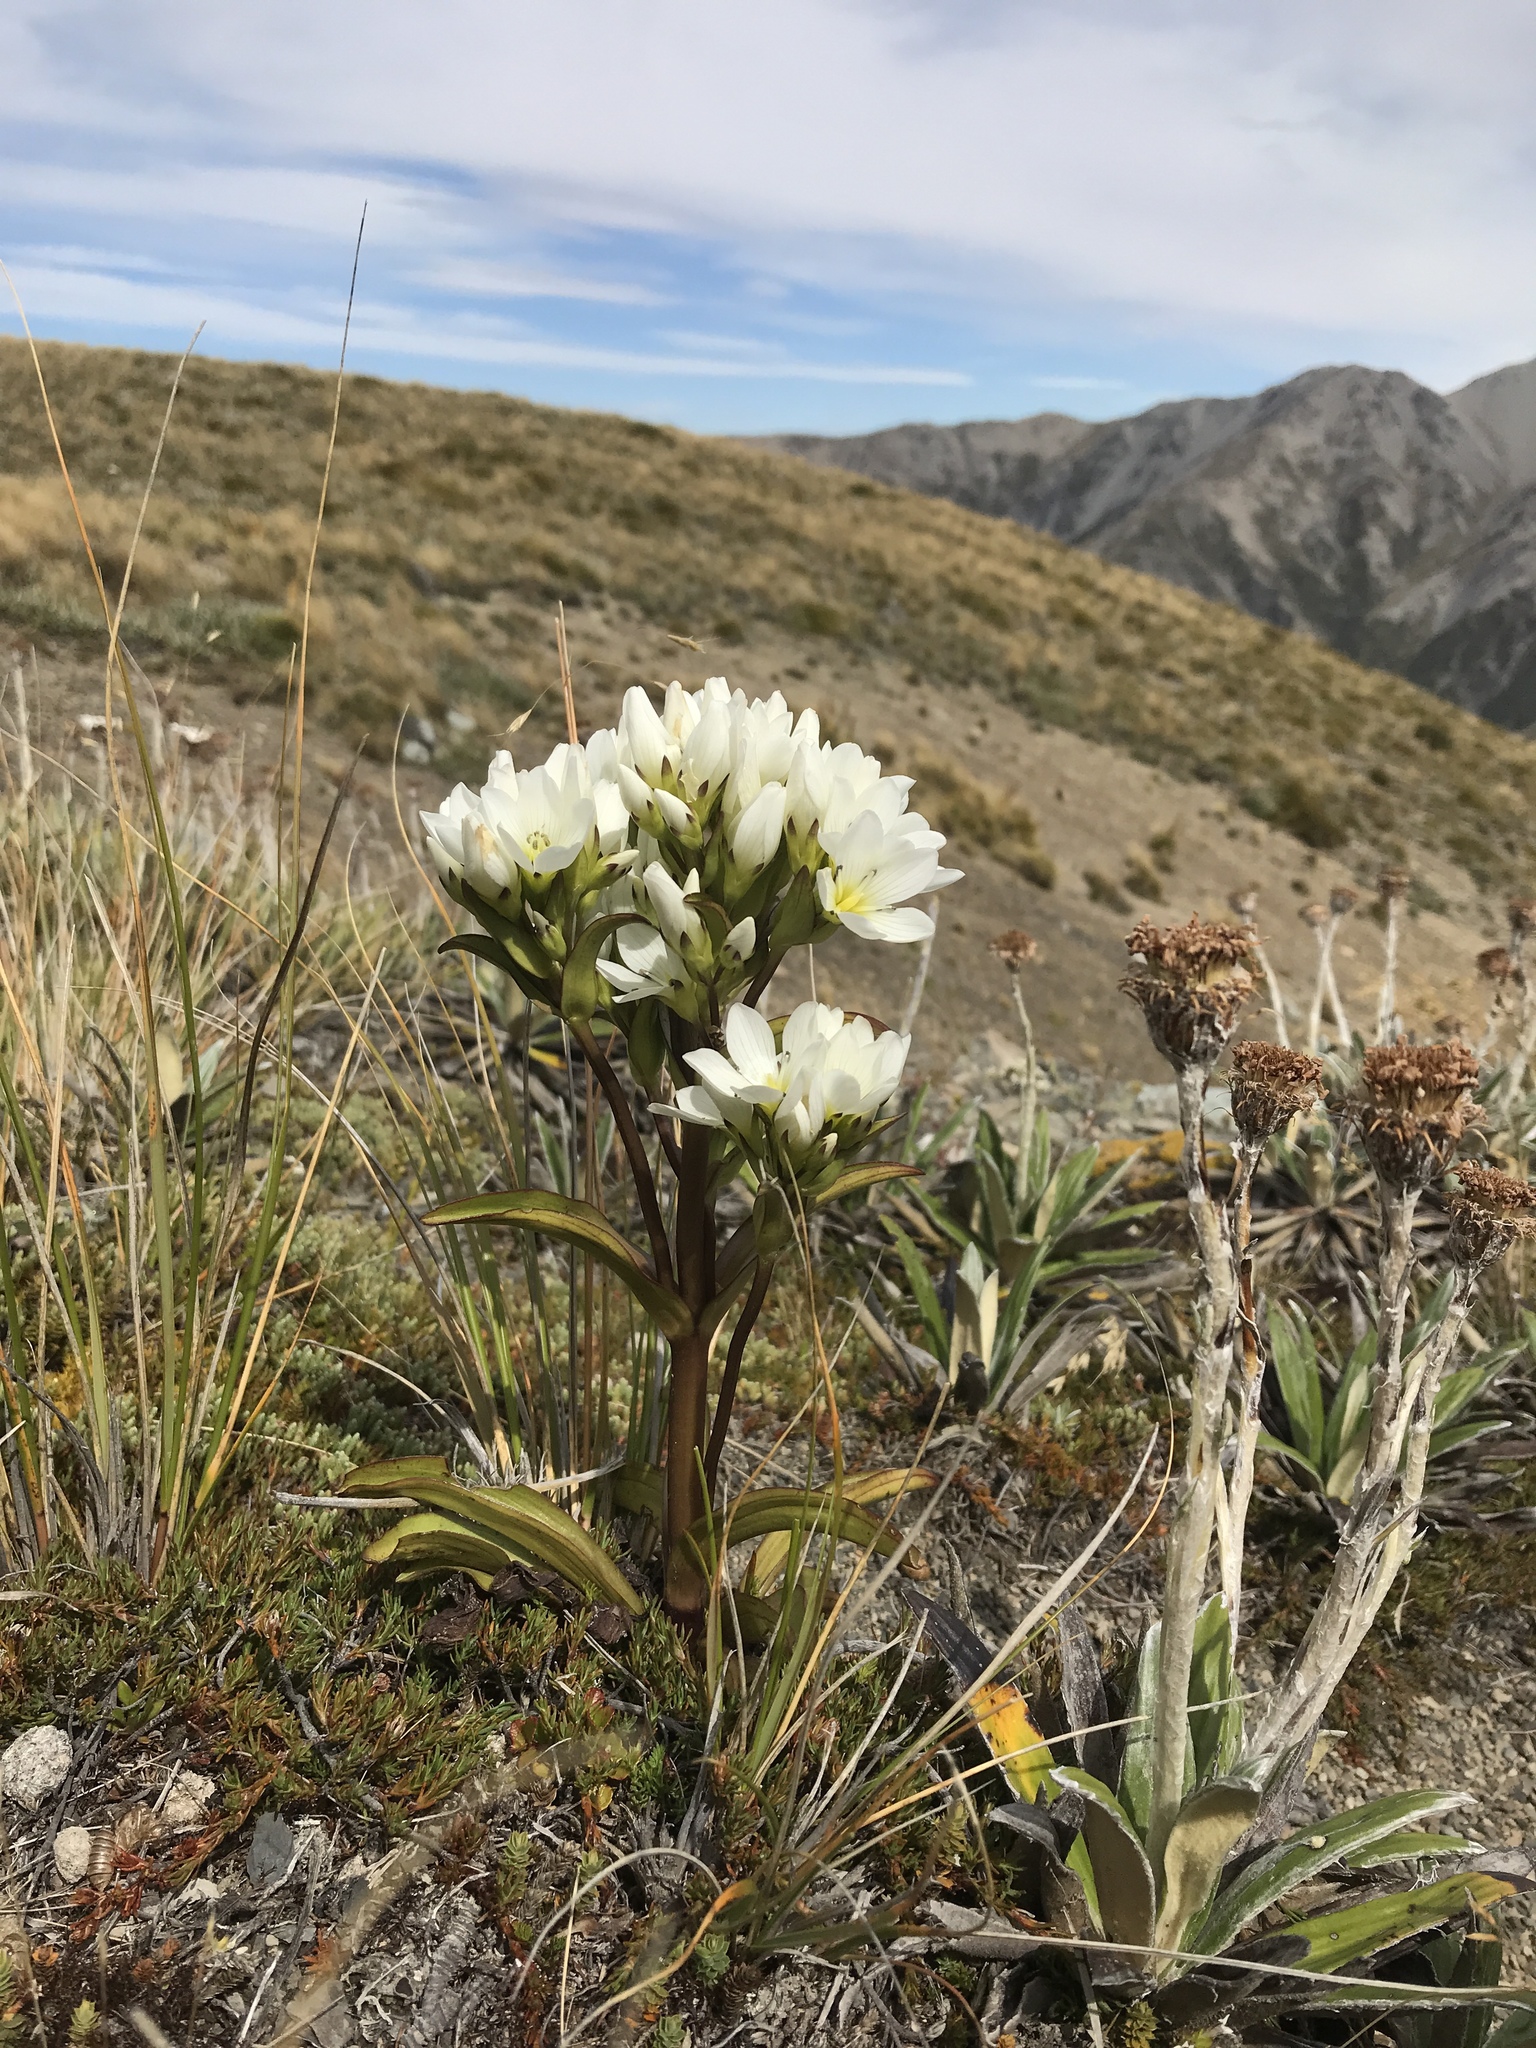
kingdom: Plantae
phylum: Tracheophyta
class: Magnoliopsida
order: Gentianales
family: Gentianaceae
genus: Gentianella
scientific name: Gentianella corymbifera
